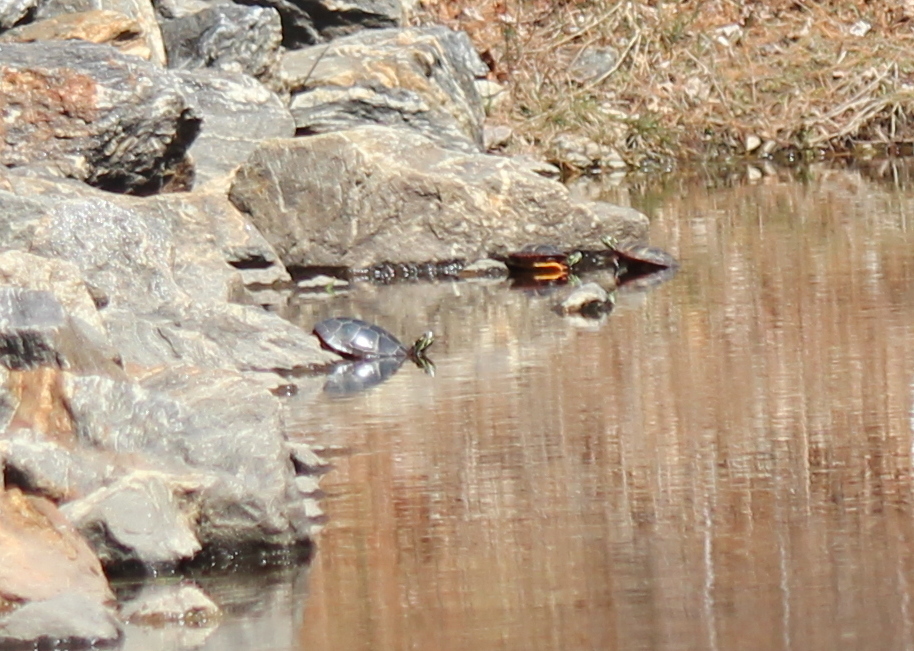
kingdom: Animalia
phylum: Chordata
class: Testudines
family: Emydidae
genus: Chrysemys
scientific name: Chrysemys picta
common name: Painted turtle
